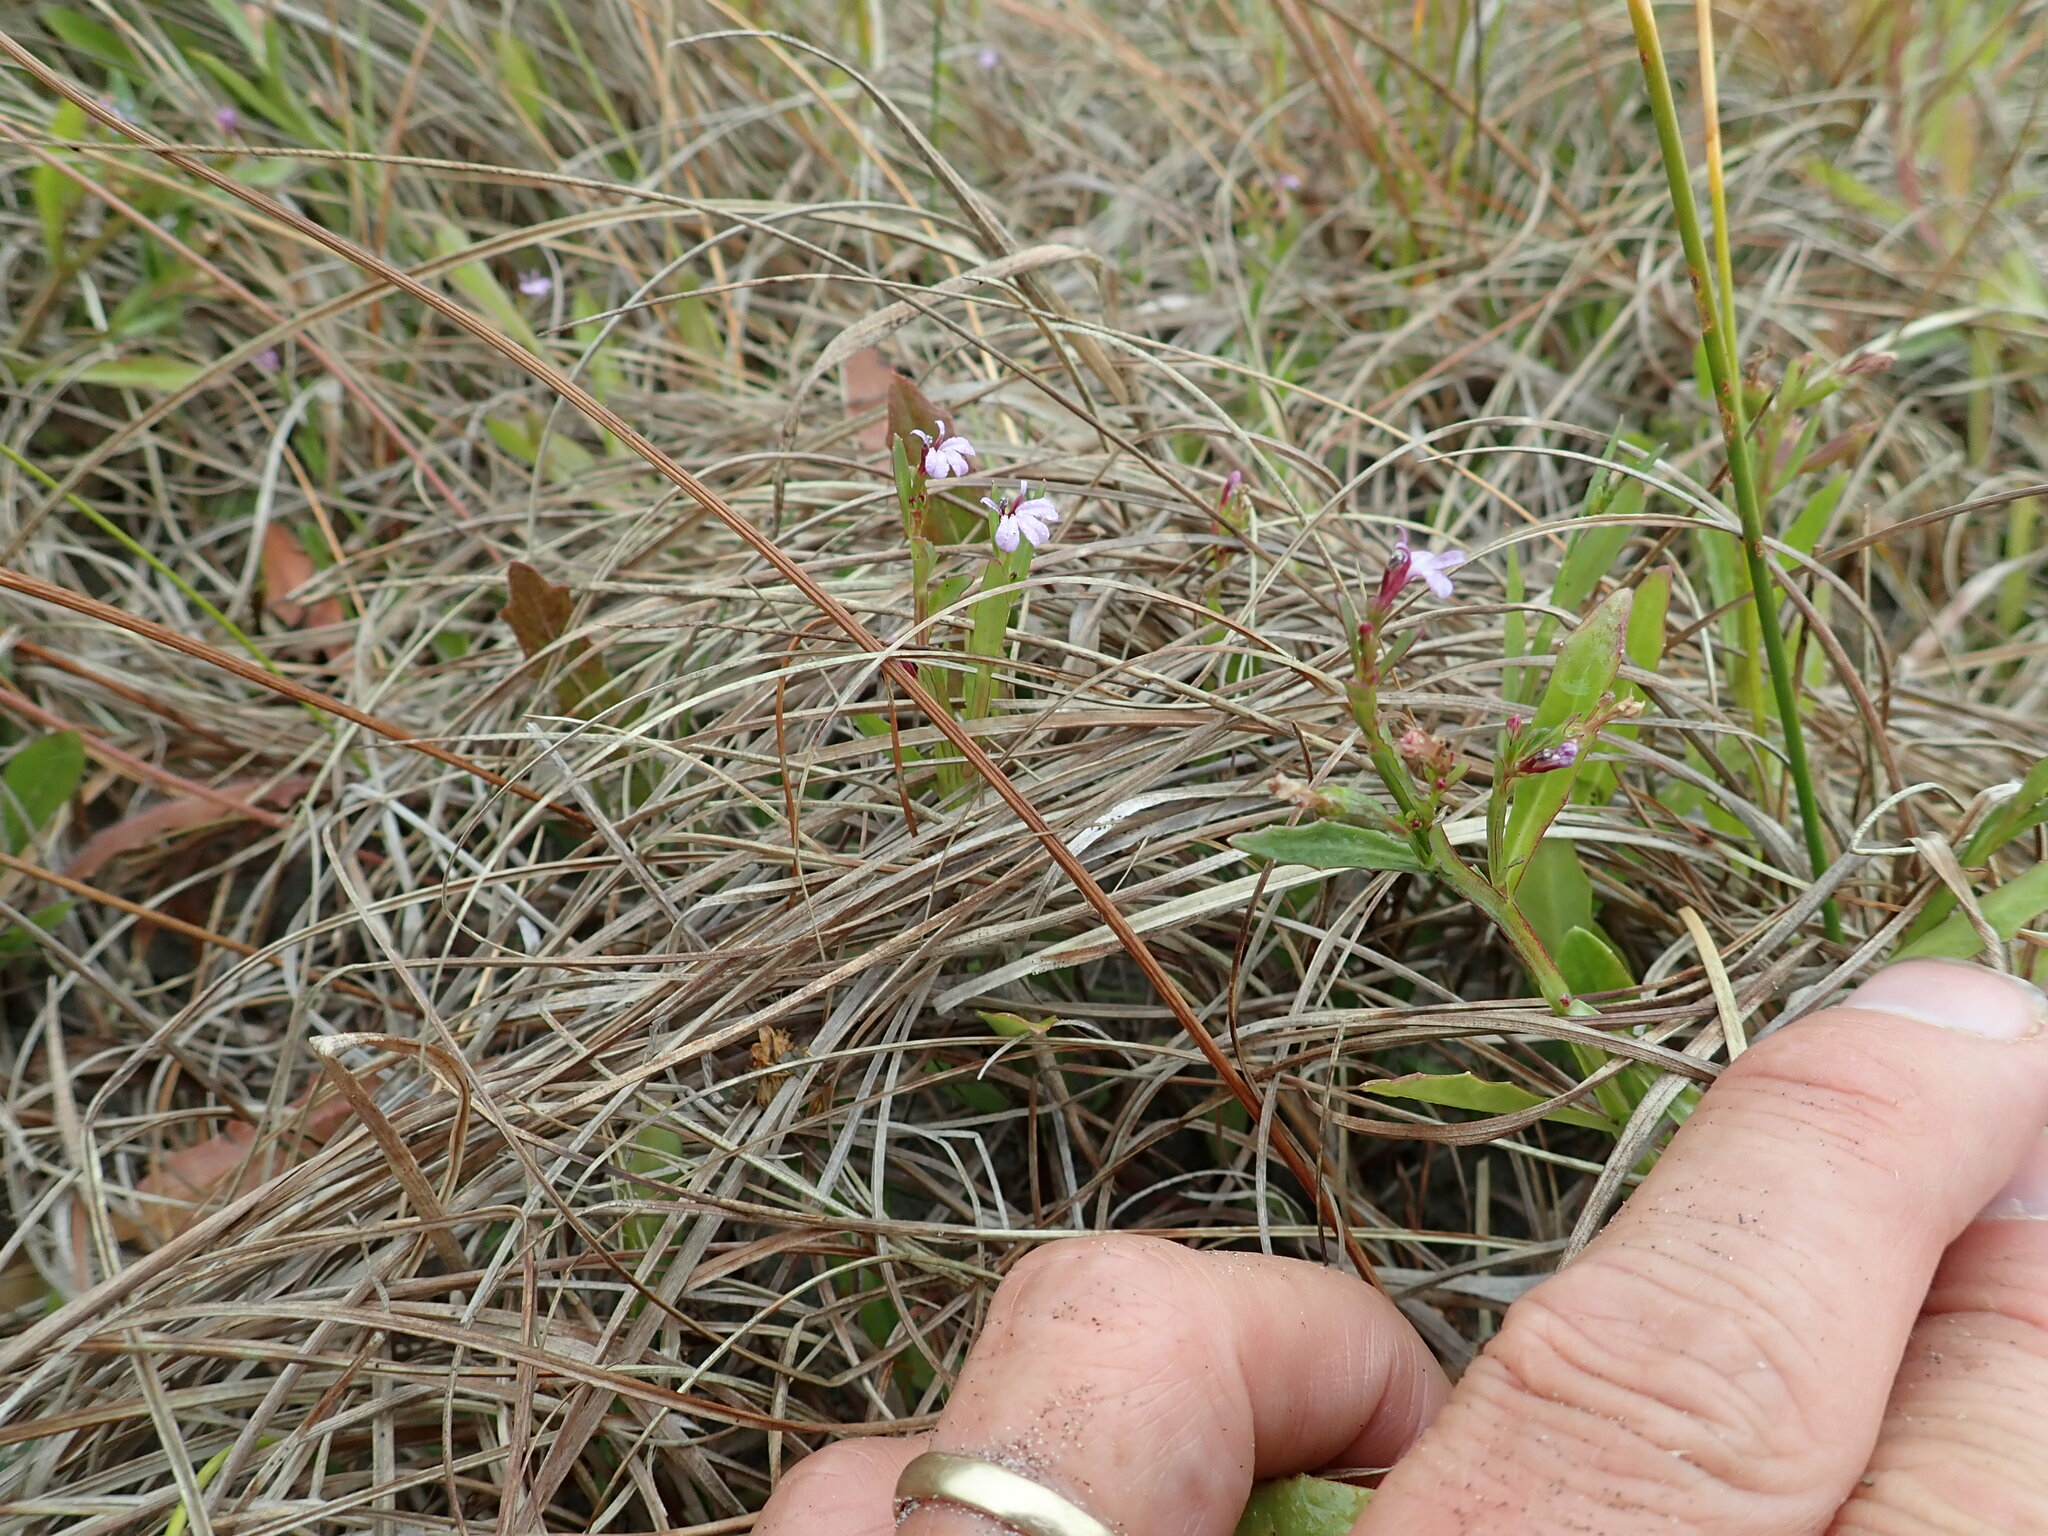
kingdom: Plantae
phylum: Tracheophyta
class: Magnoliopsida
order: Asterales
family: Campanulaceae
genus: Lobelia
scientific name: Lobelia anceps
